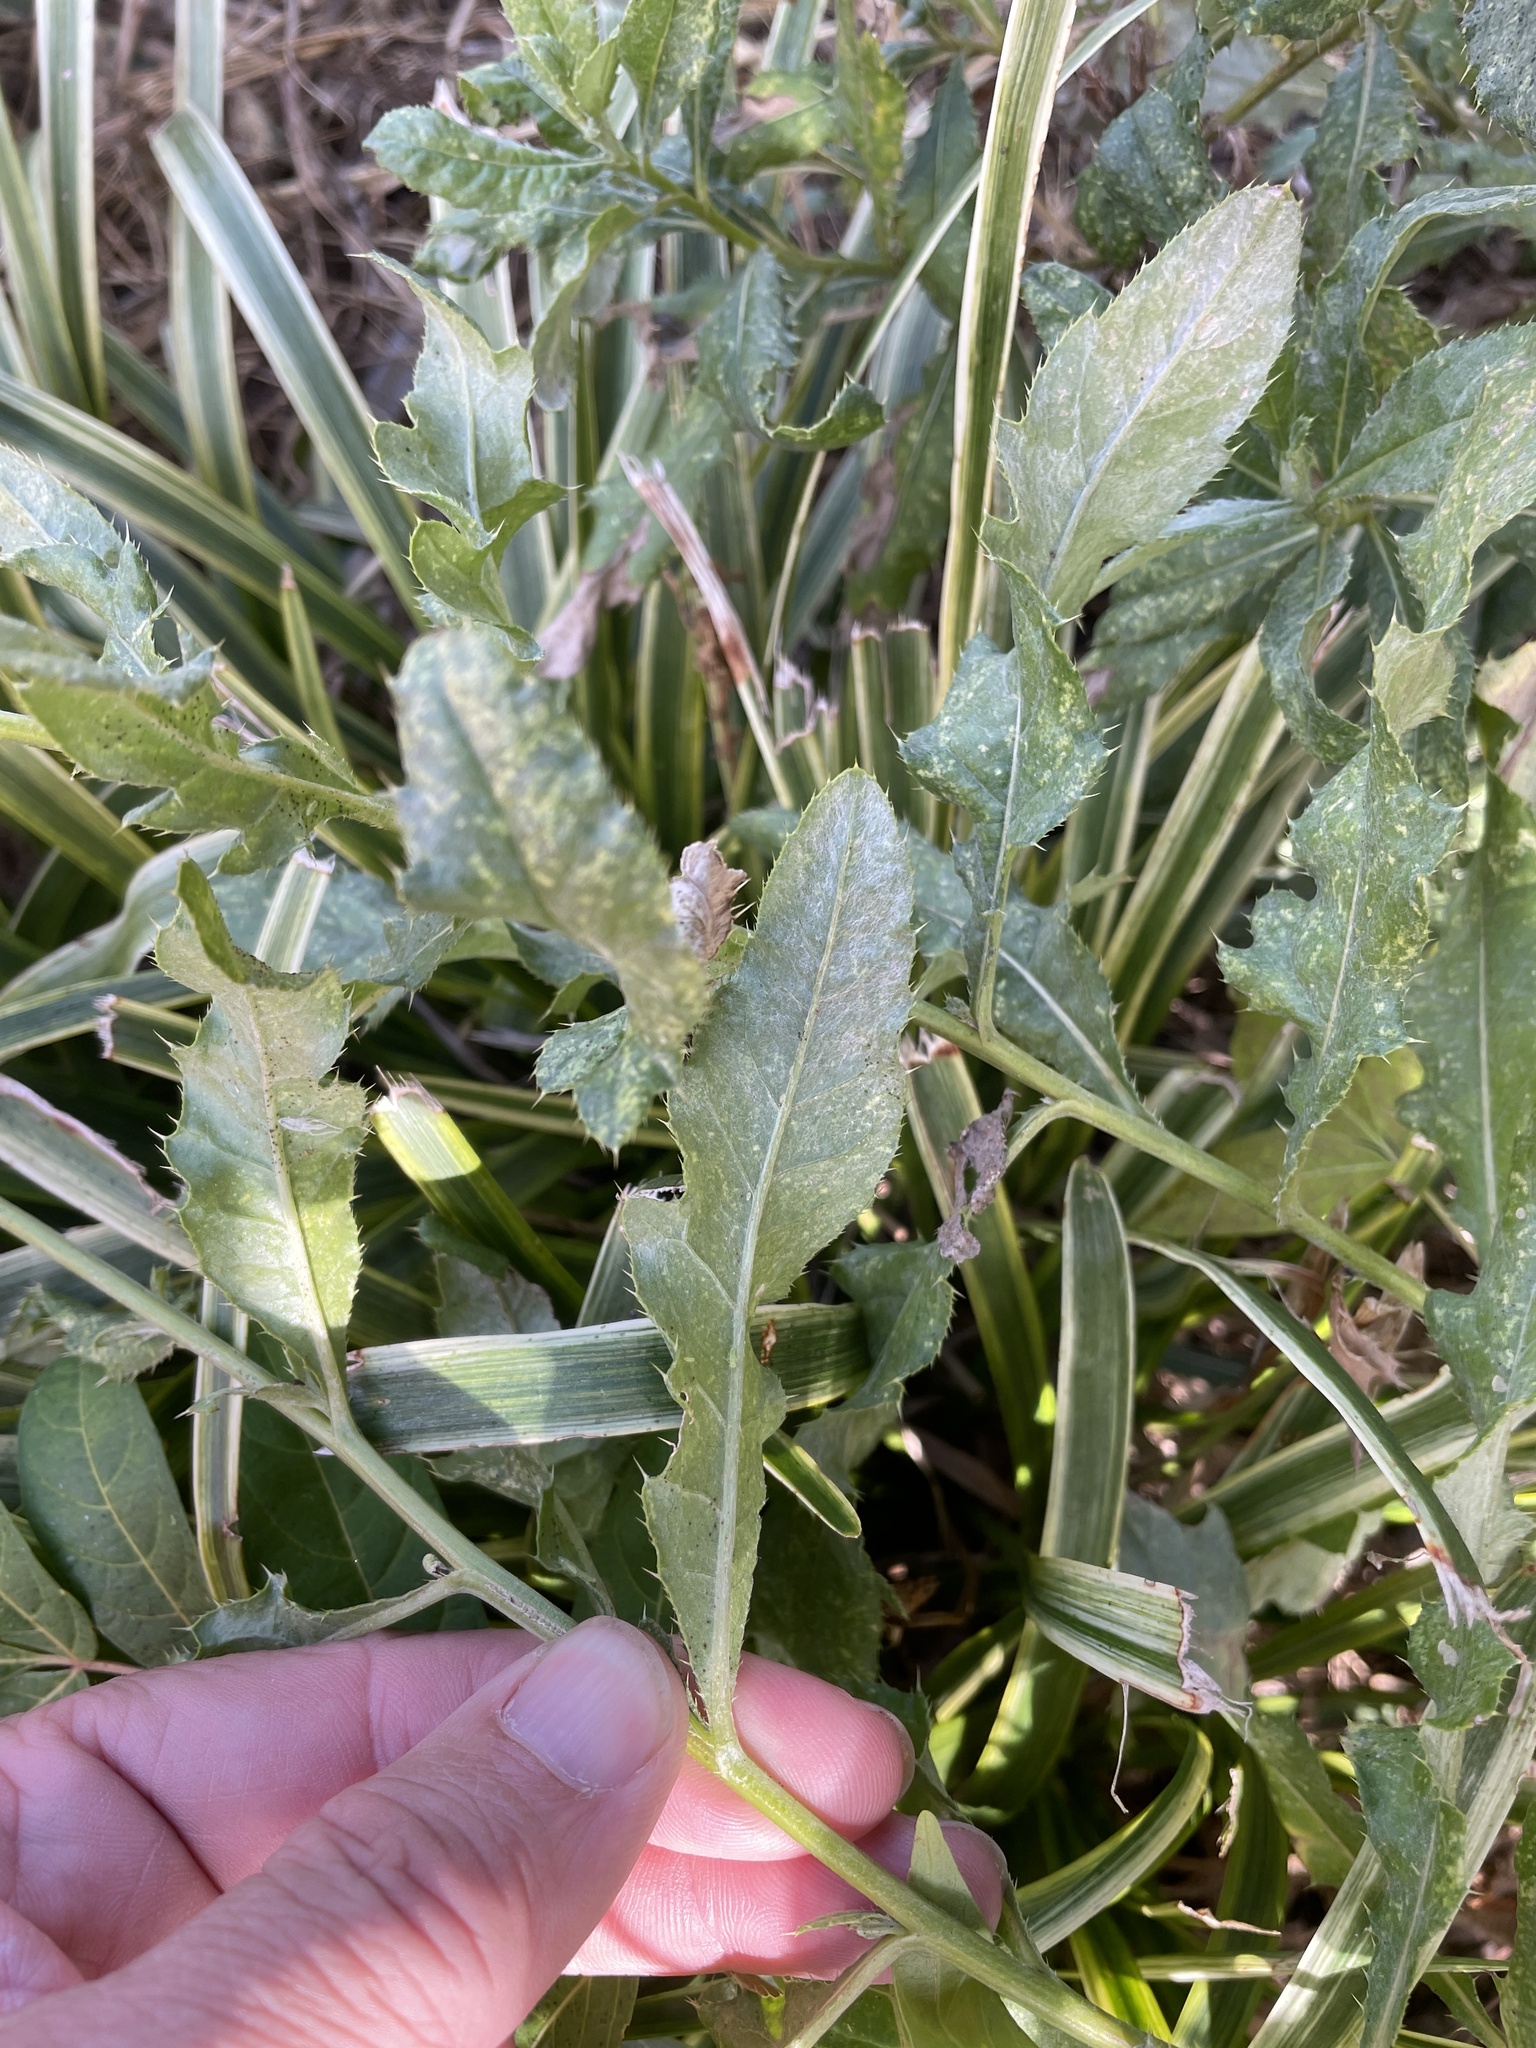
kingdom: Plantae
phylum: Tracheophyta
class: Magnoliopsida
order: Asterales
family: Asteraceae
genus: Cirsium
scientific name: Cirsium arvense
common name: Creeping thistle
